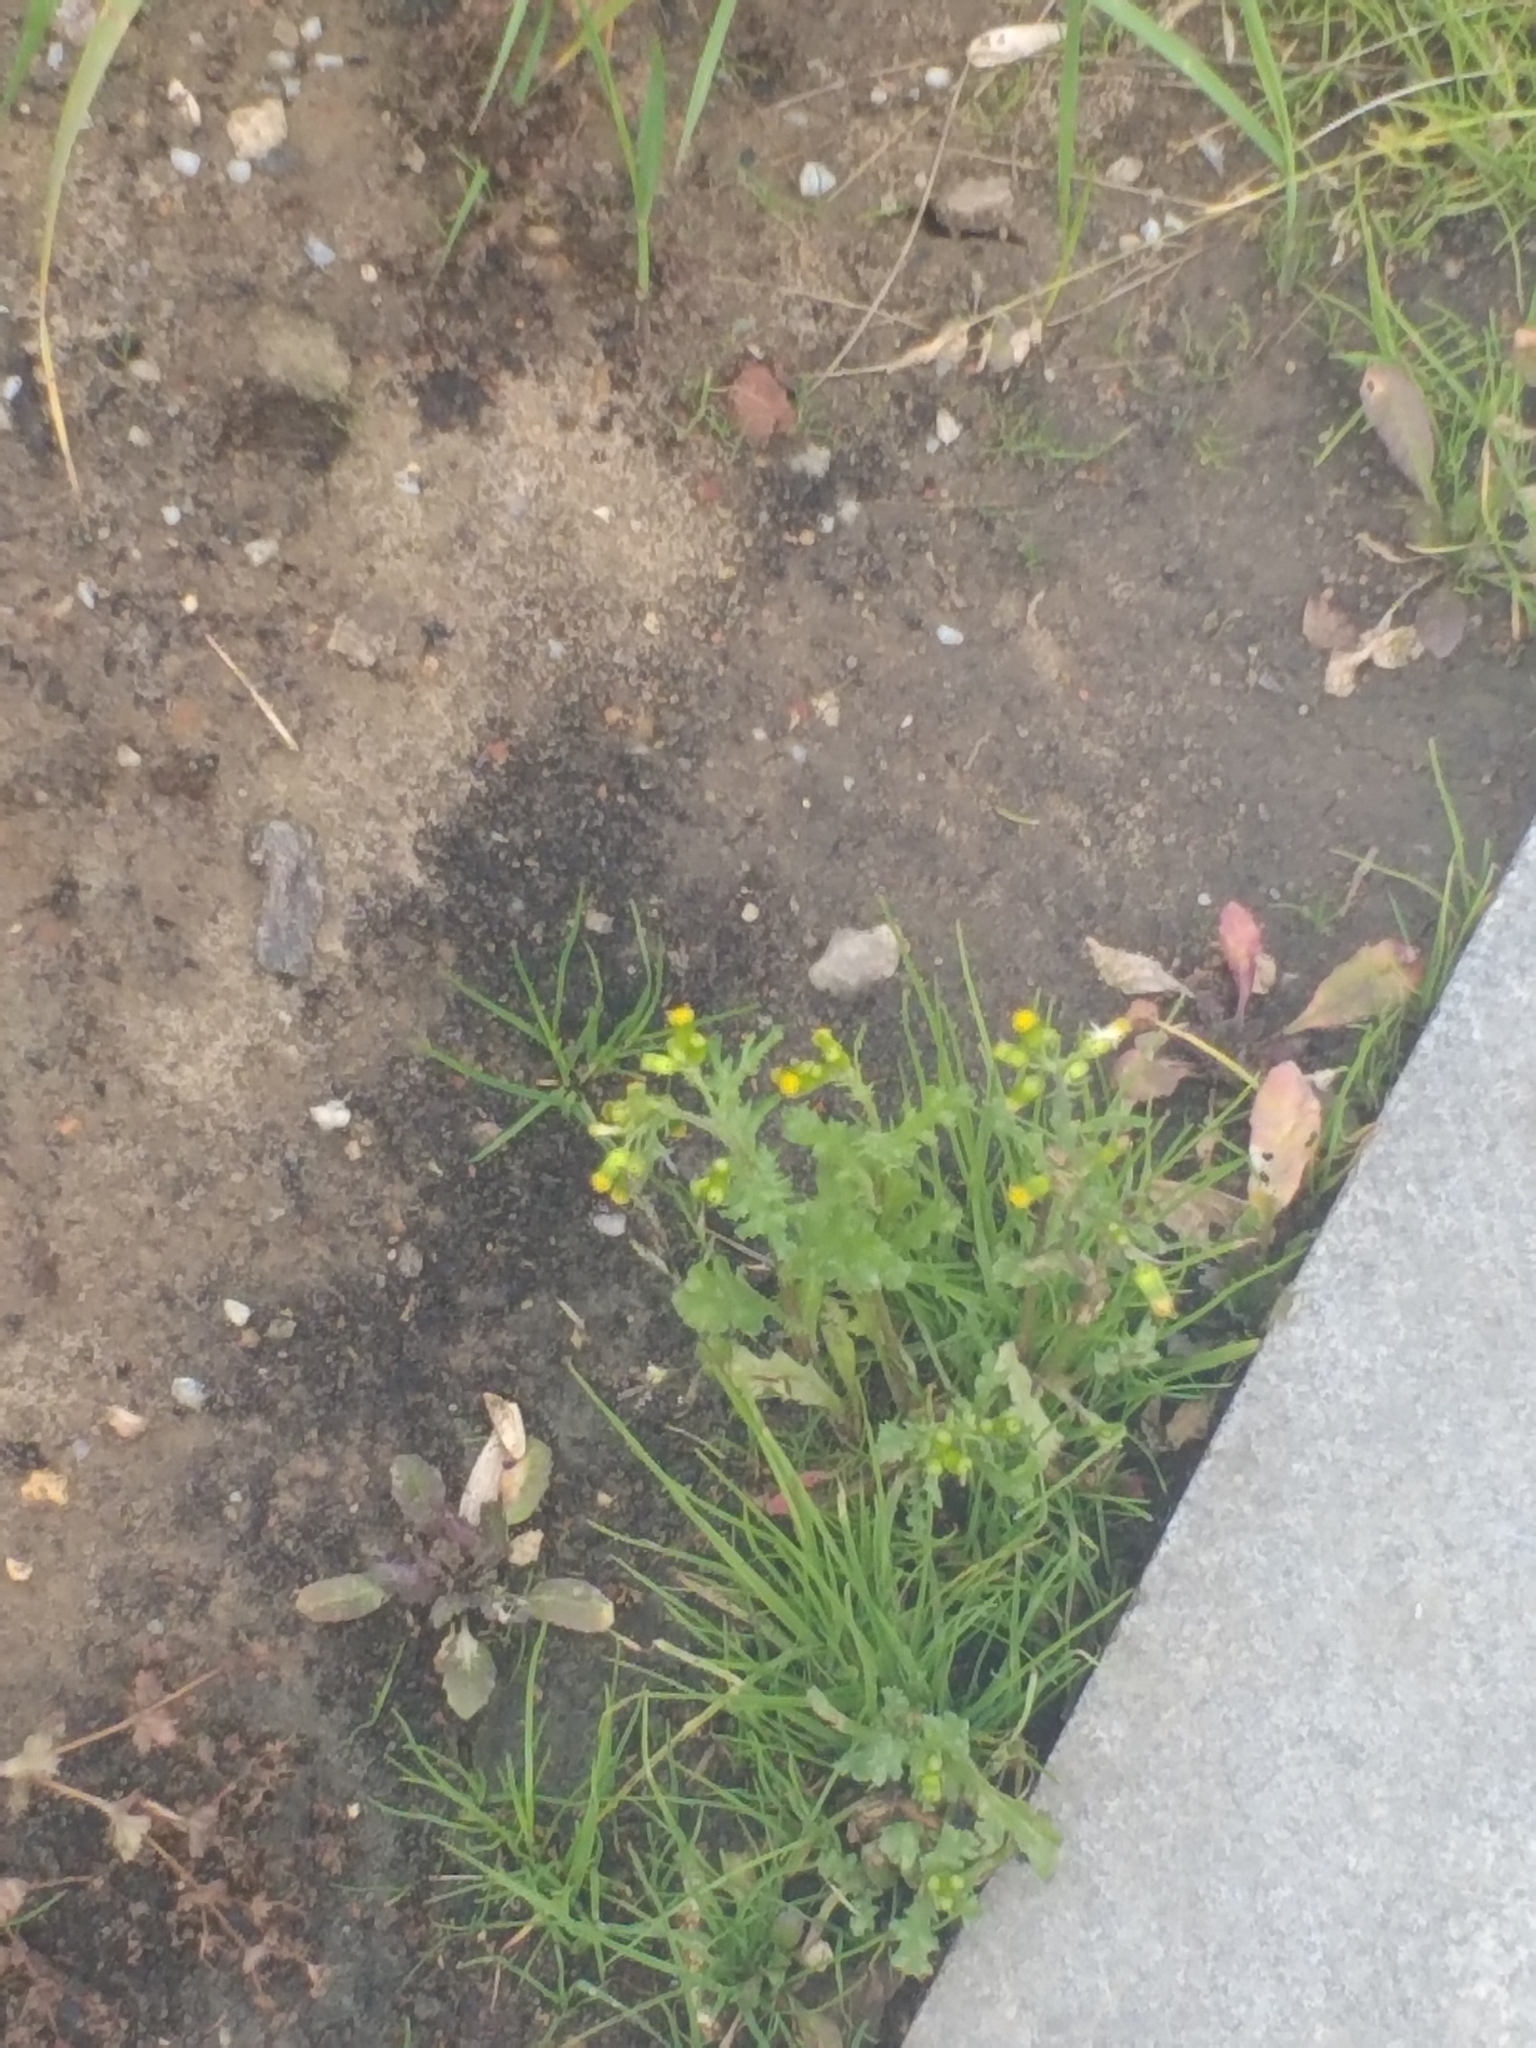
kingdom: Plantae
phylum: Tracheophyta
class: Magnoliopsida
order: Asterales
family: Asteraceae
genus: Senecio
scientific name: Senecio vulgaris
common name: Old-man-in-the-spring
